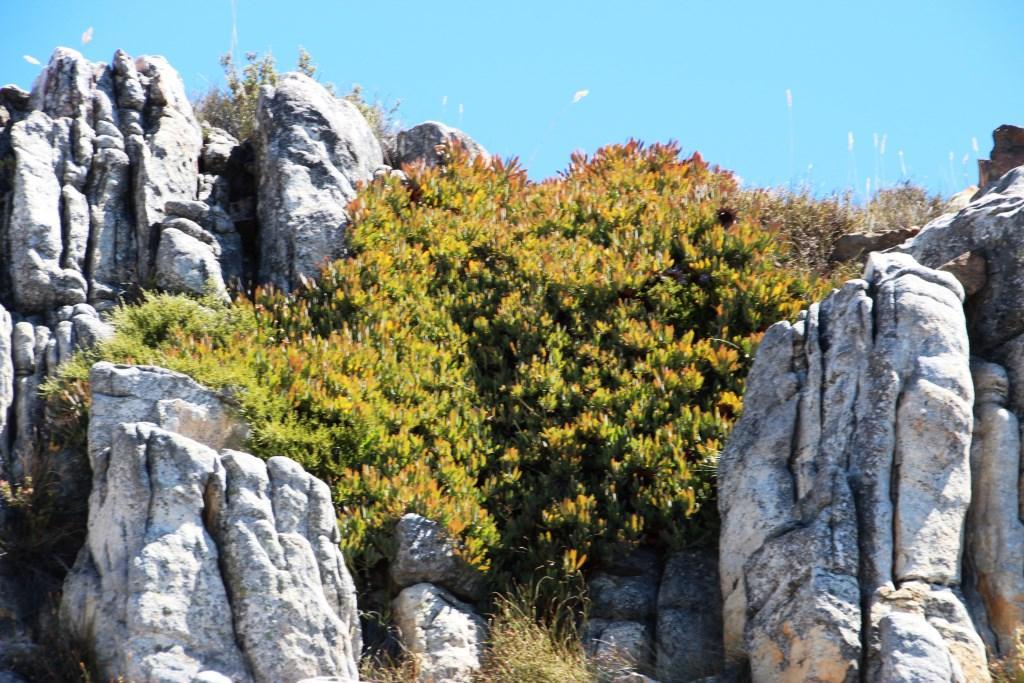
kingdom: Plantae
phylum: Tracheophyta
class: Magnoliopsida
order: Proteales
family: Proteaceae
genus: Protea
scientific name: Protea effusa
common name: Scarlet sugarbush
